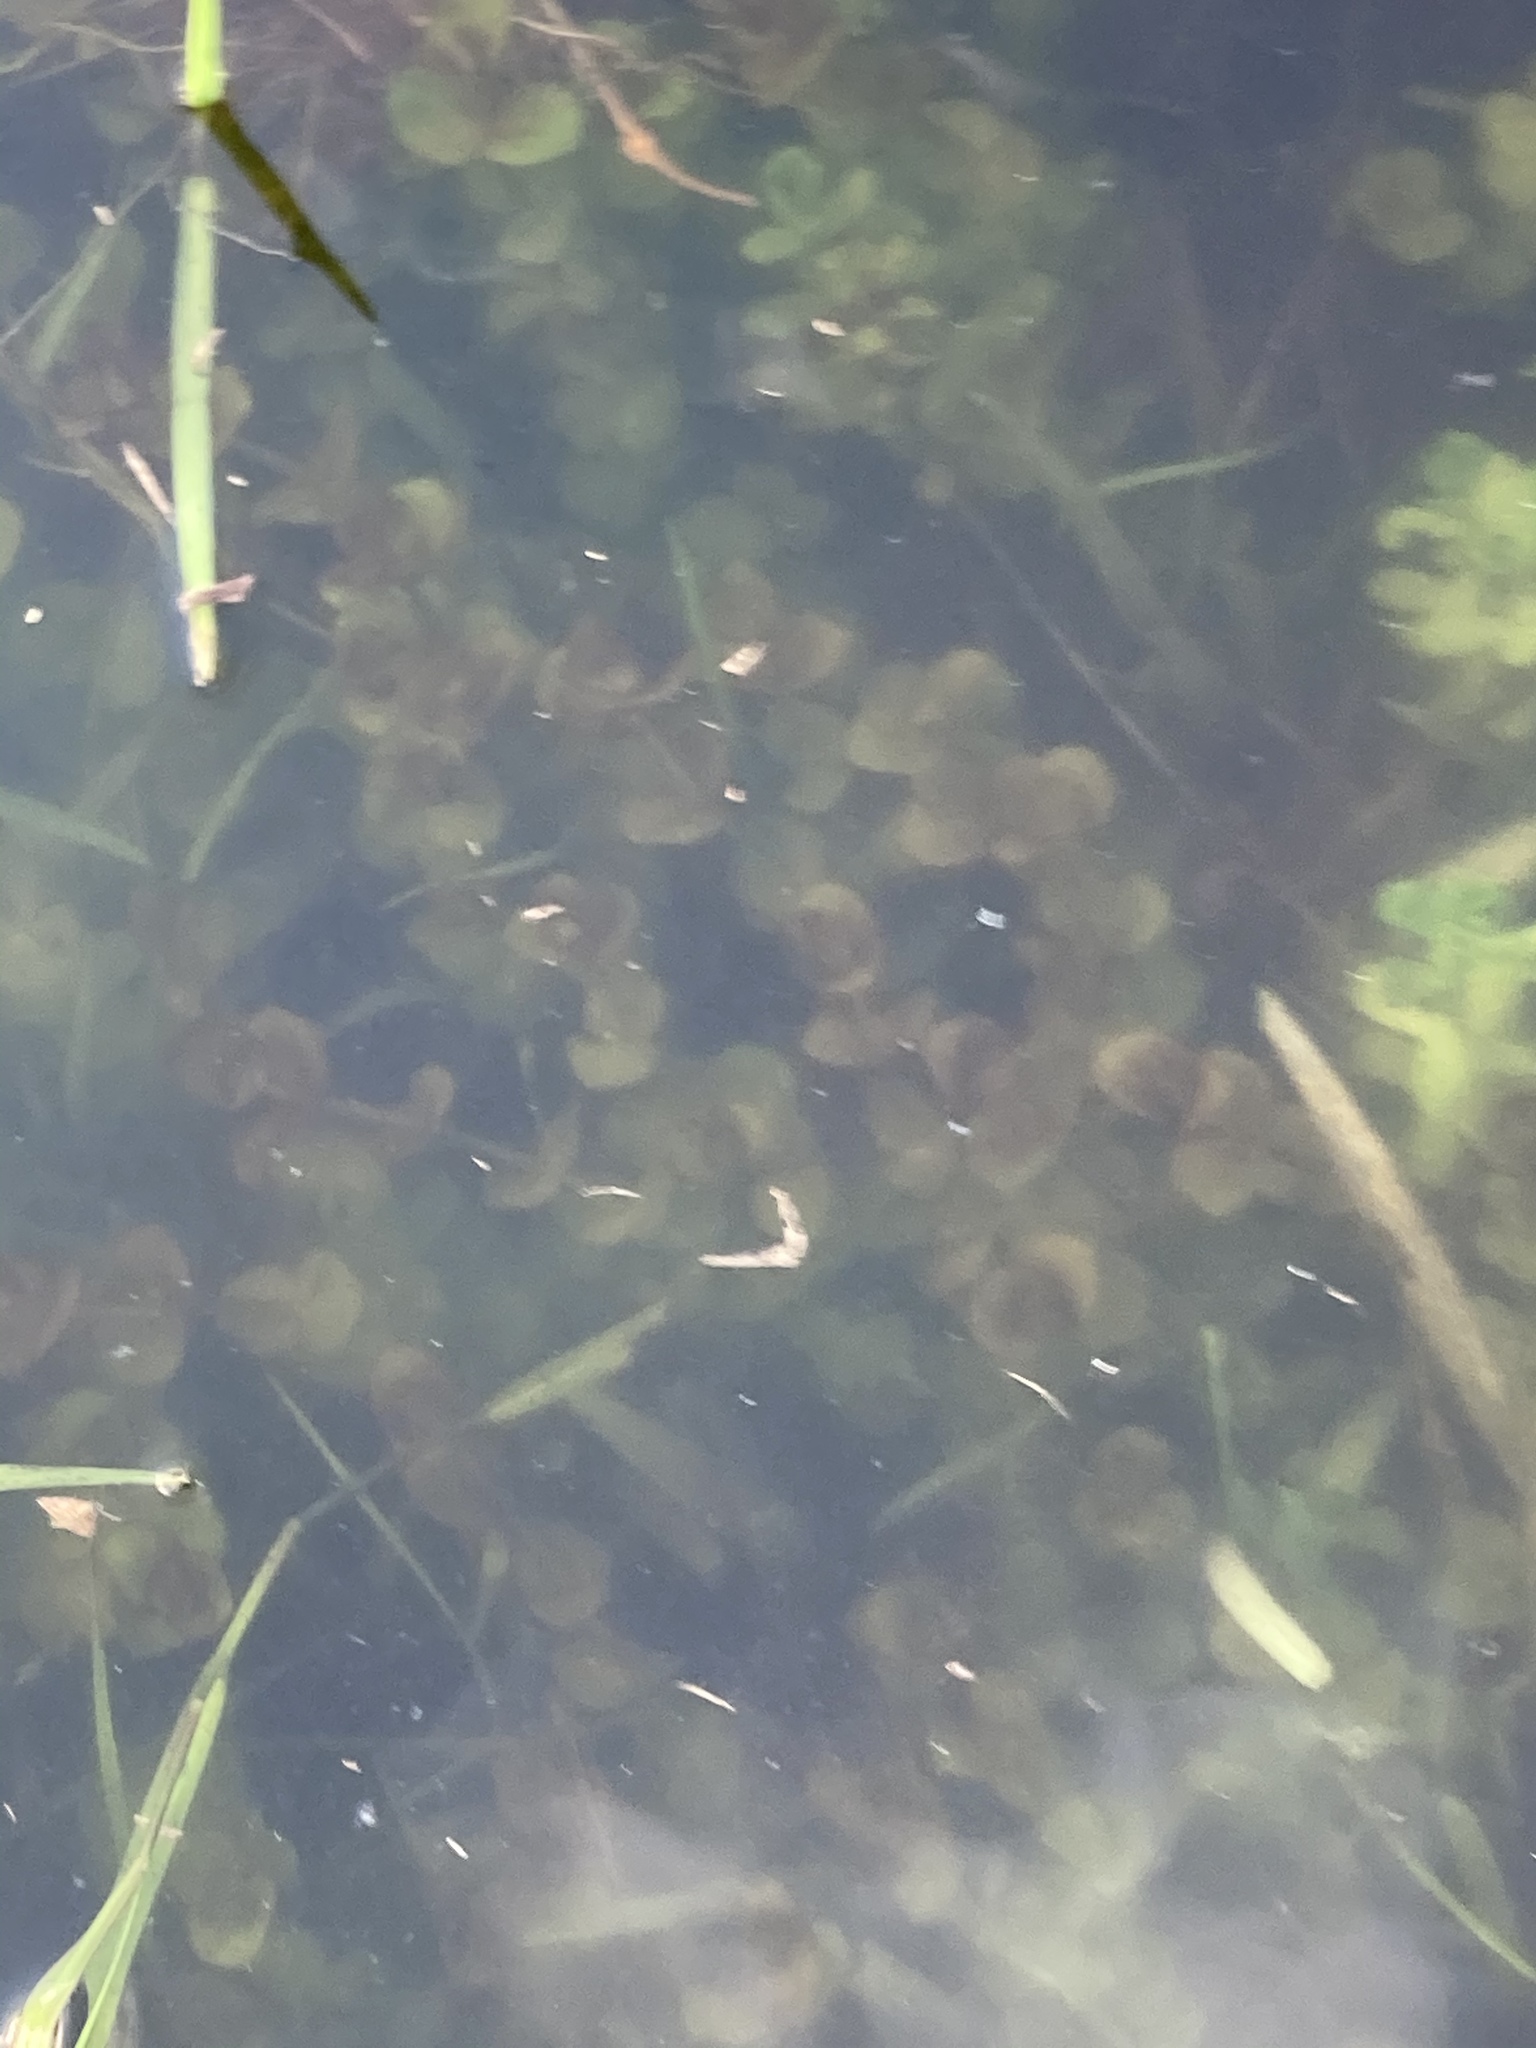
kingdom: Plantae
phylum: Tracheophyta
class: Magnoliopsida
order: Lamiales
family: Plantaginaceae
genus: Bacopa
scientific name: Bacopa caroliniana
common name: Lemon bacopa
